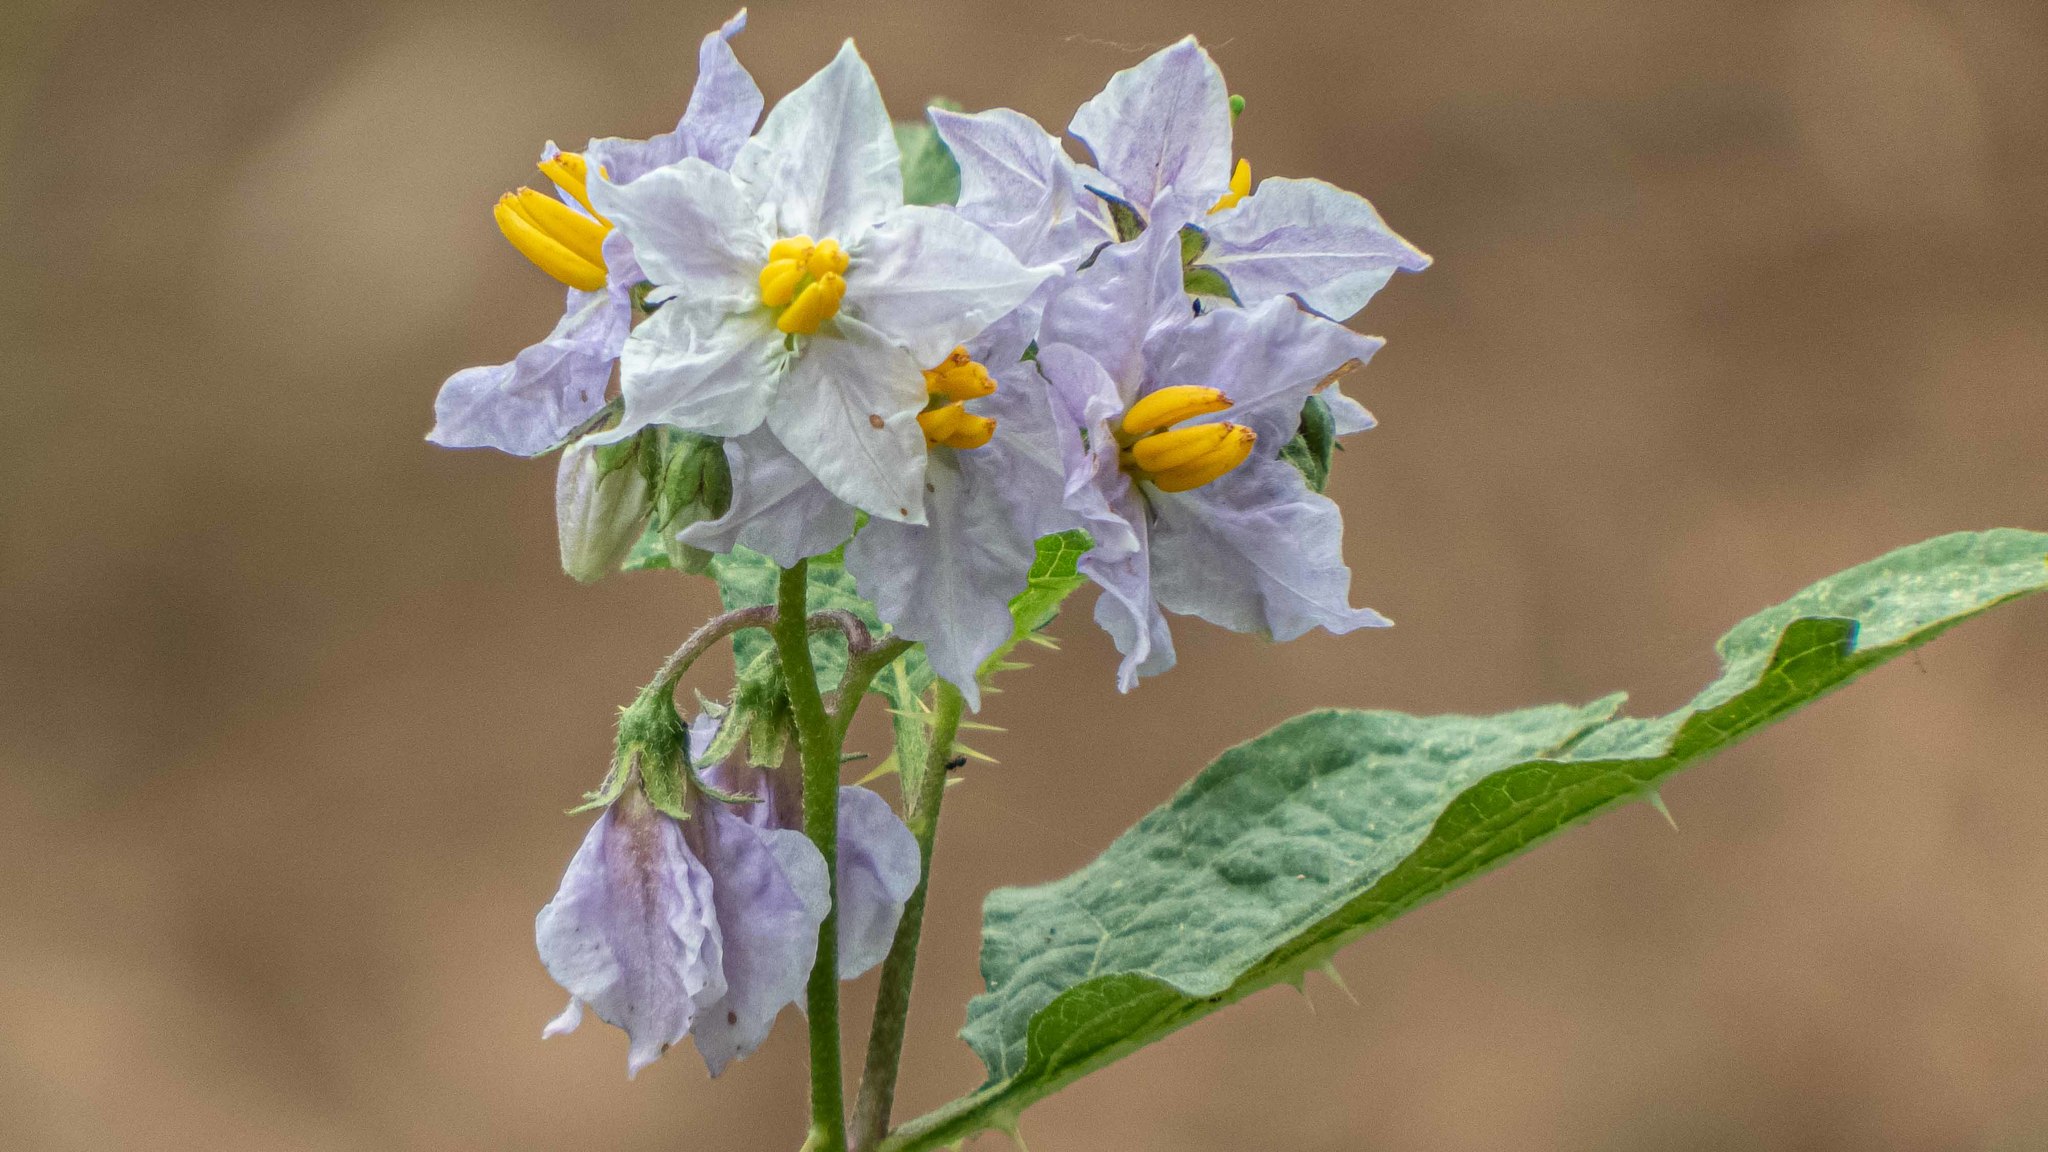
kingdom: Plantae
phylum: Tracheophyta
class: Magnoliopsida
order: Solanales
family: Solanaceae
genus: Solanum
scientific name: Solanum carolinense
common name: Horse-nettle
